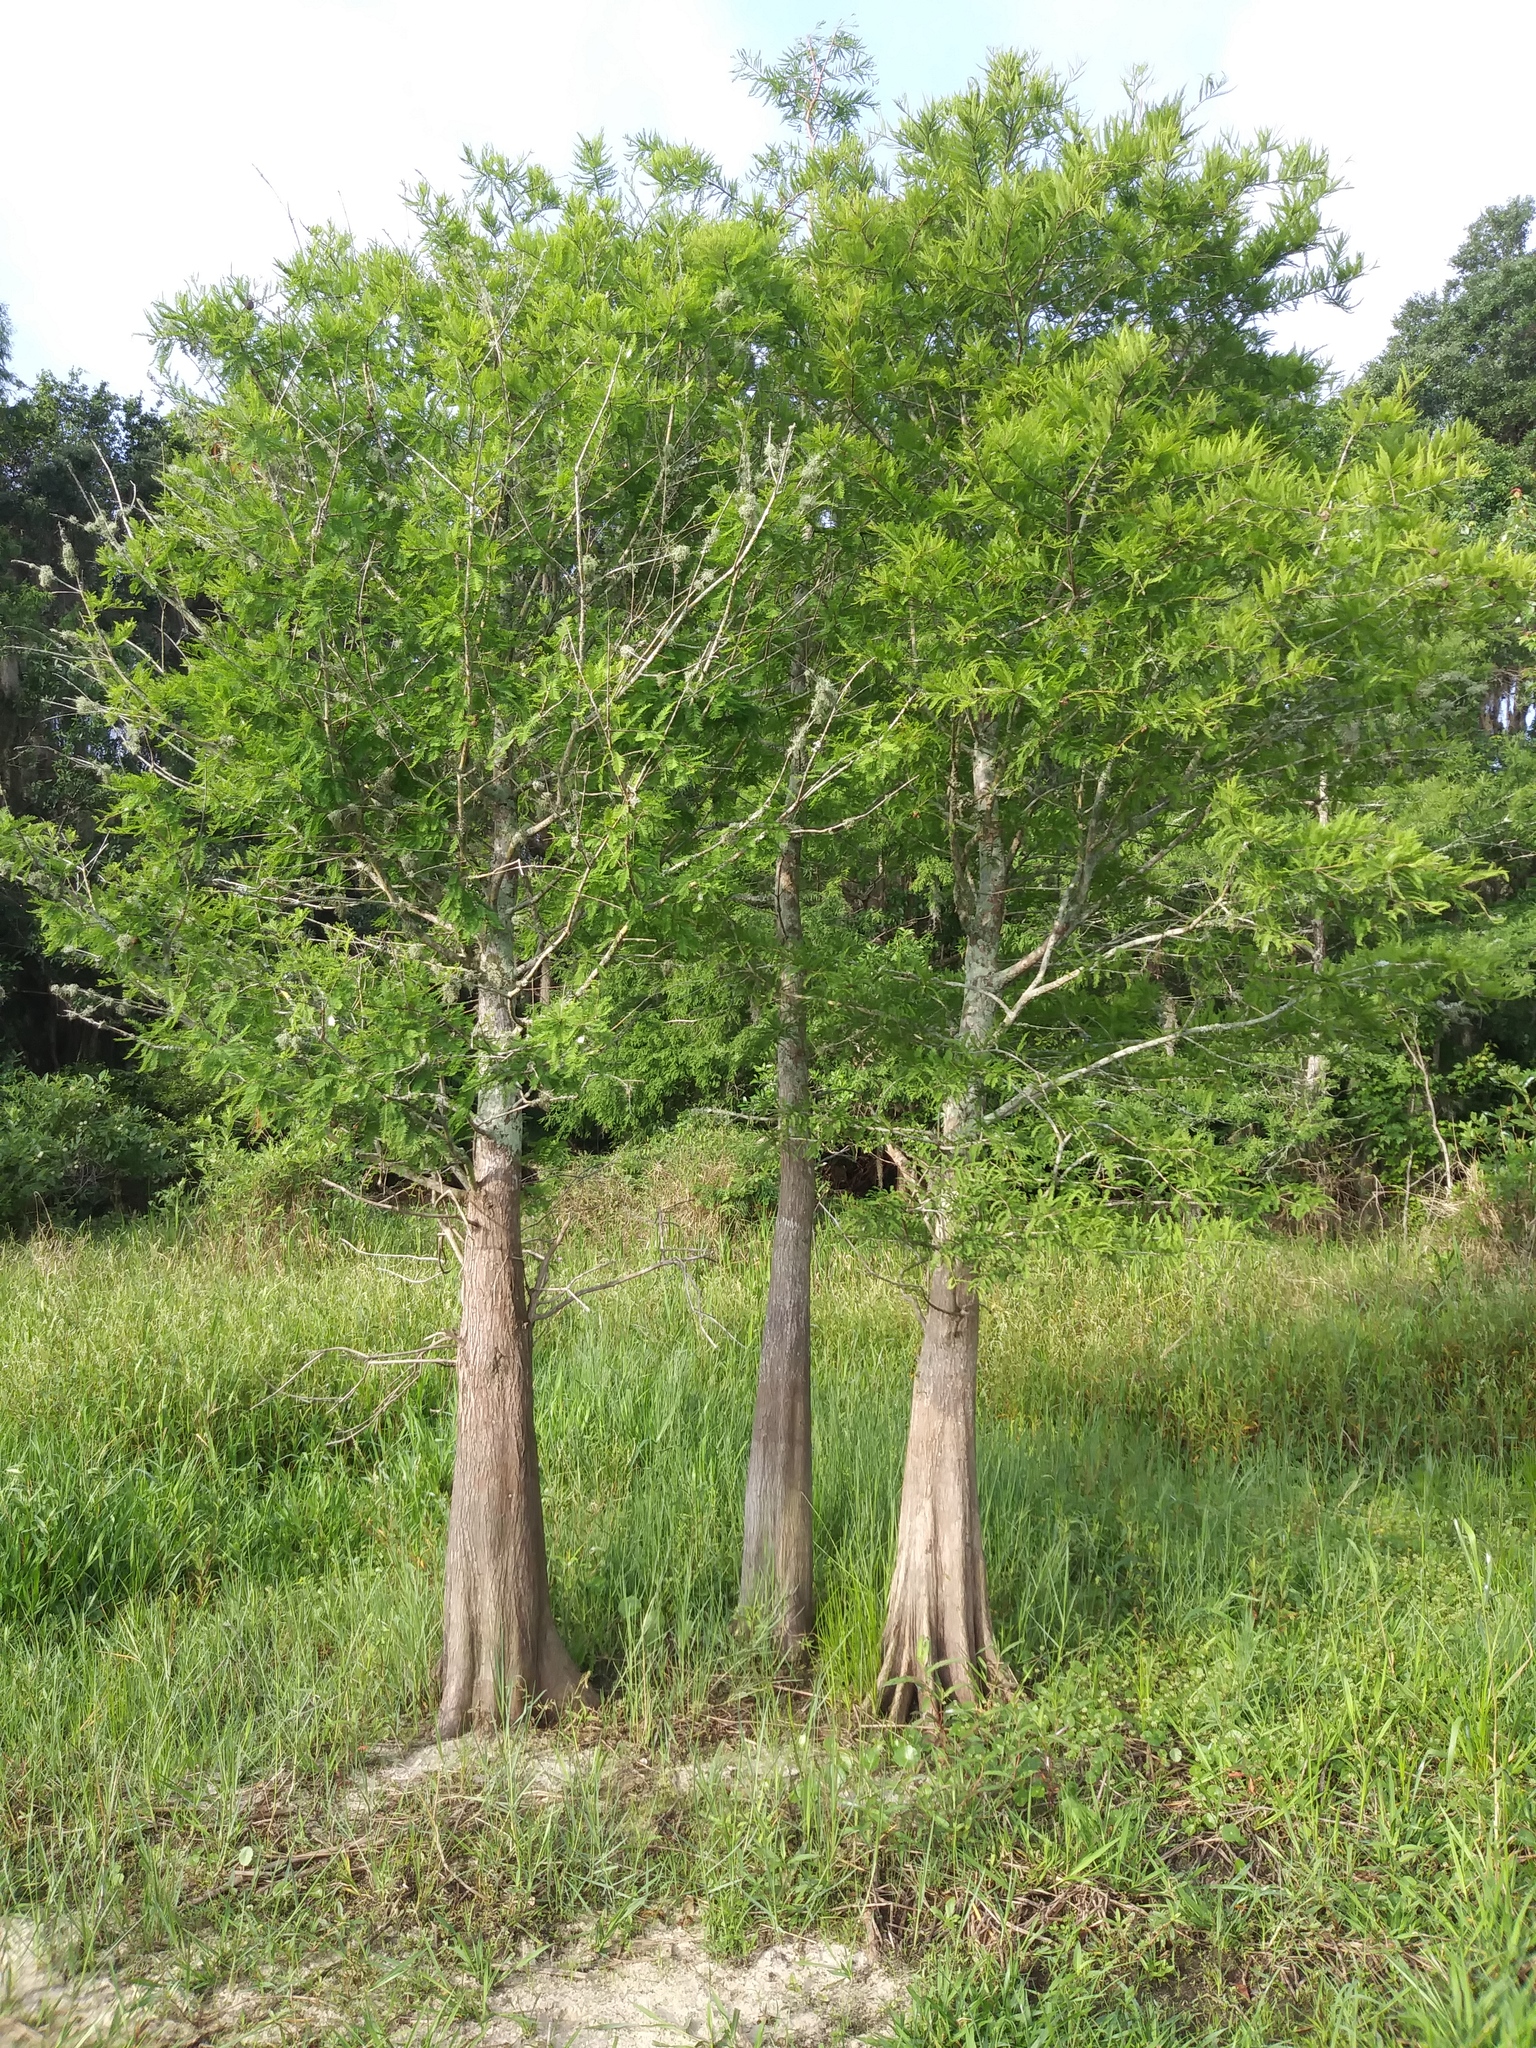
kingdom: Plantae
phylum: Tracheophyta
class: Pinopsida
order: Pinales
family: Cupressaceae
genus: Taxodium
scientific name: Taxodium distichum
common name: Bald cypress
